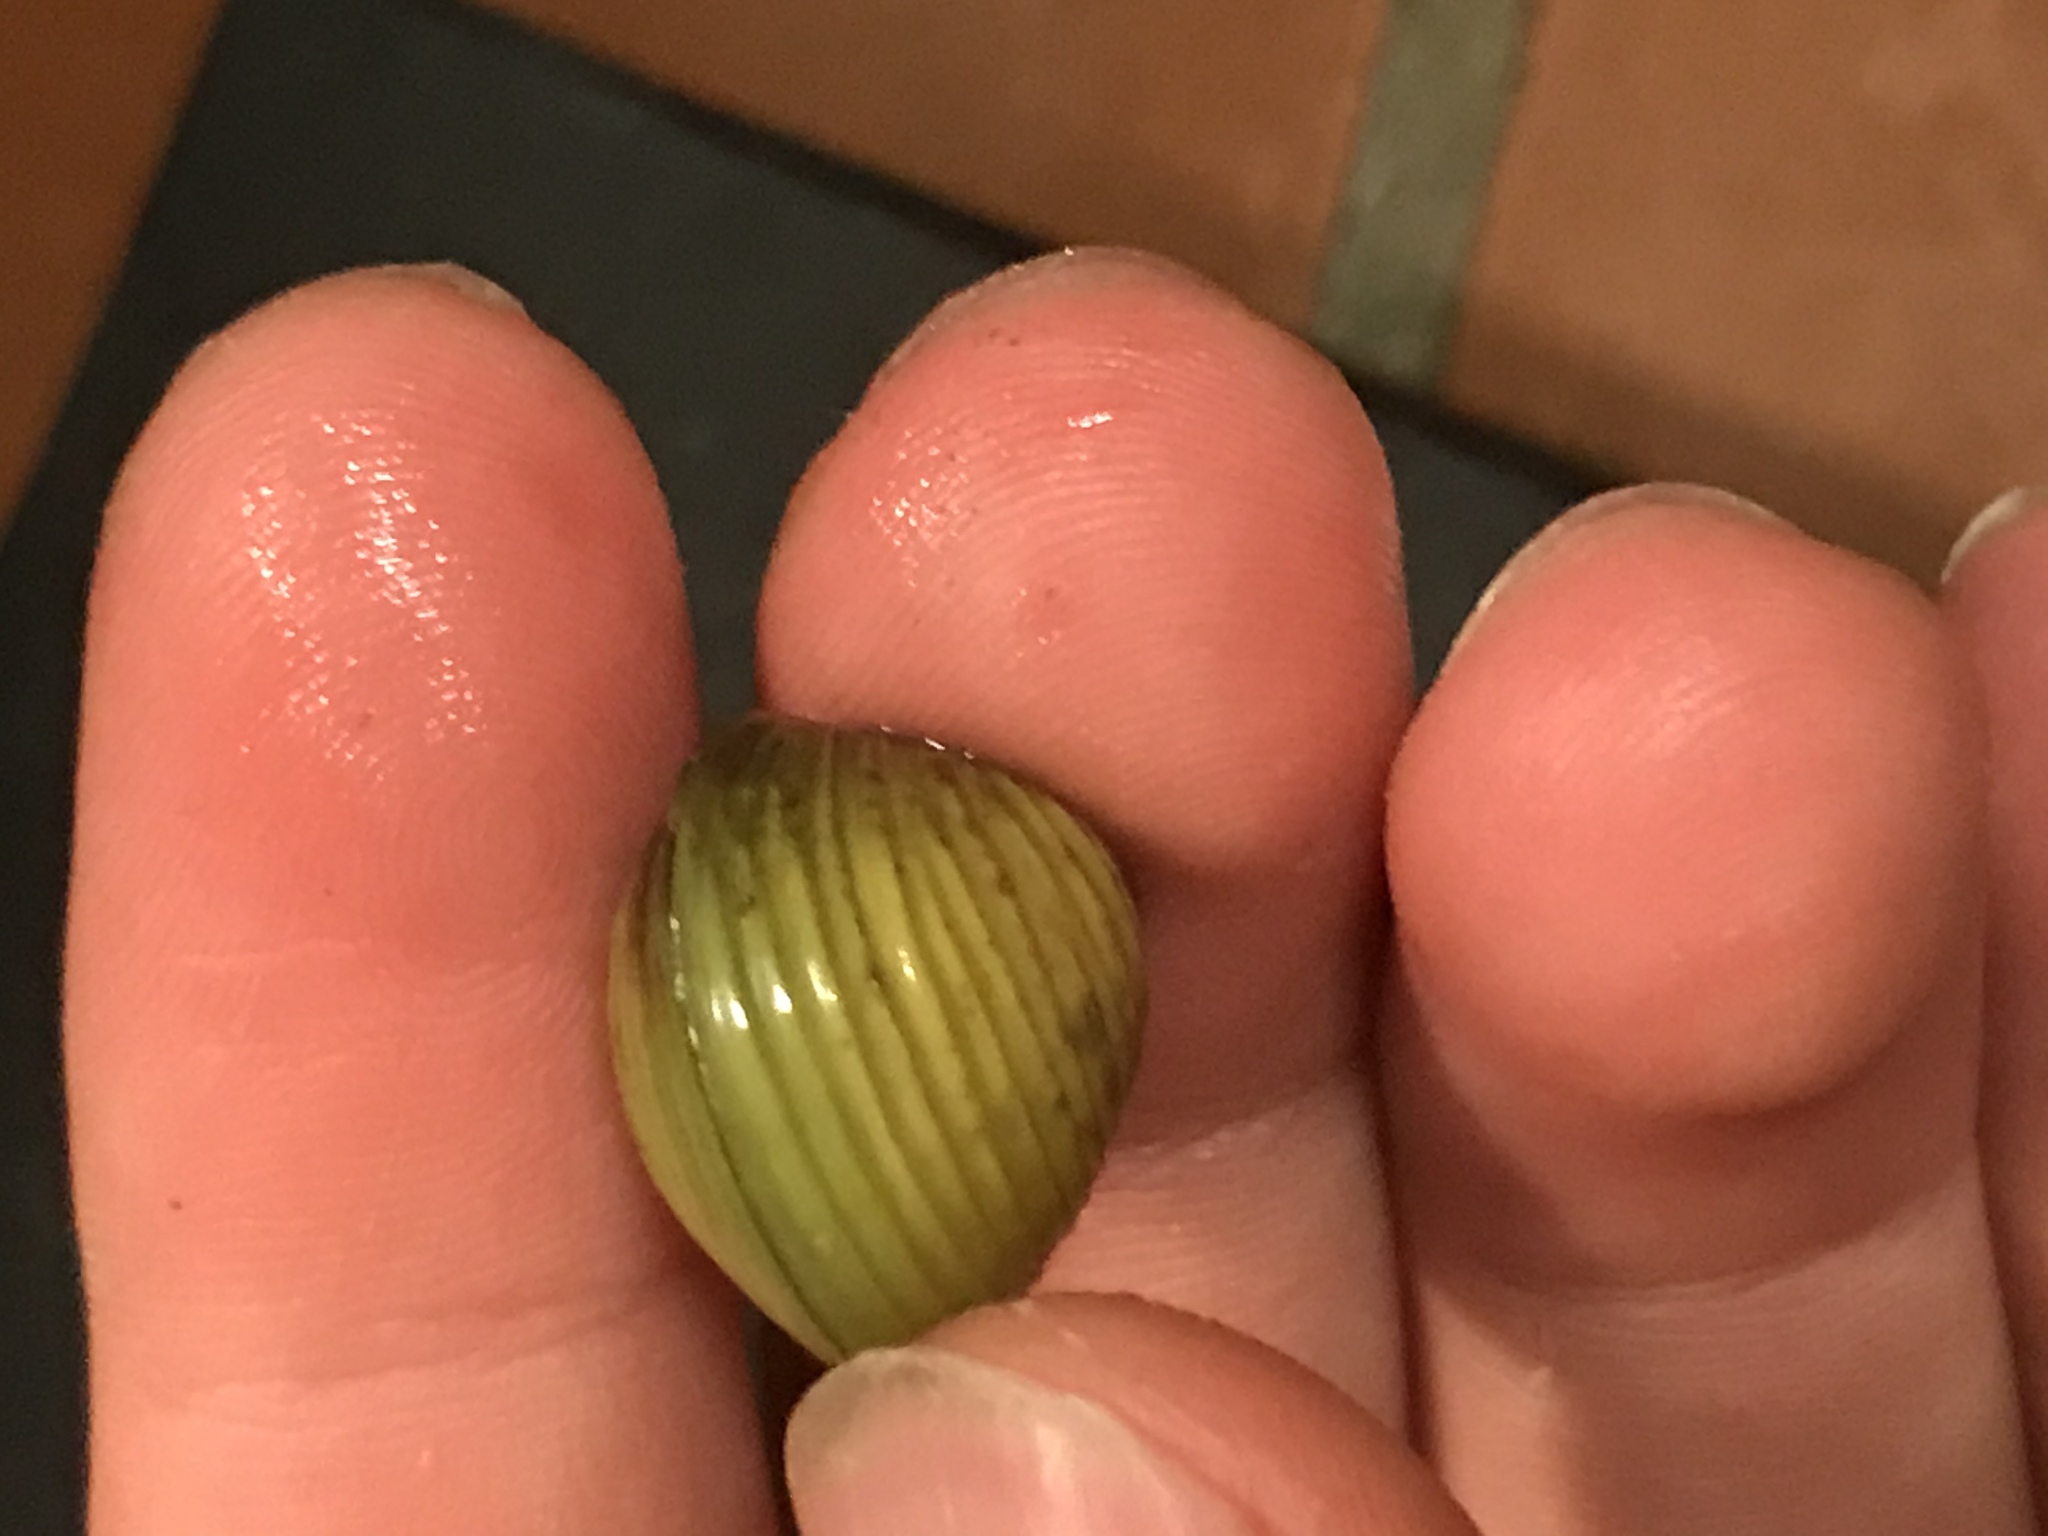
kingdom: Animalia
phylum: Mollusca
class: Bivalvia
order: Venerida
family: Cyrenidae
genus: Corbicula
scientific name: Corbicula fluminea
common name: Asian clam
